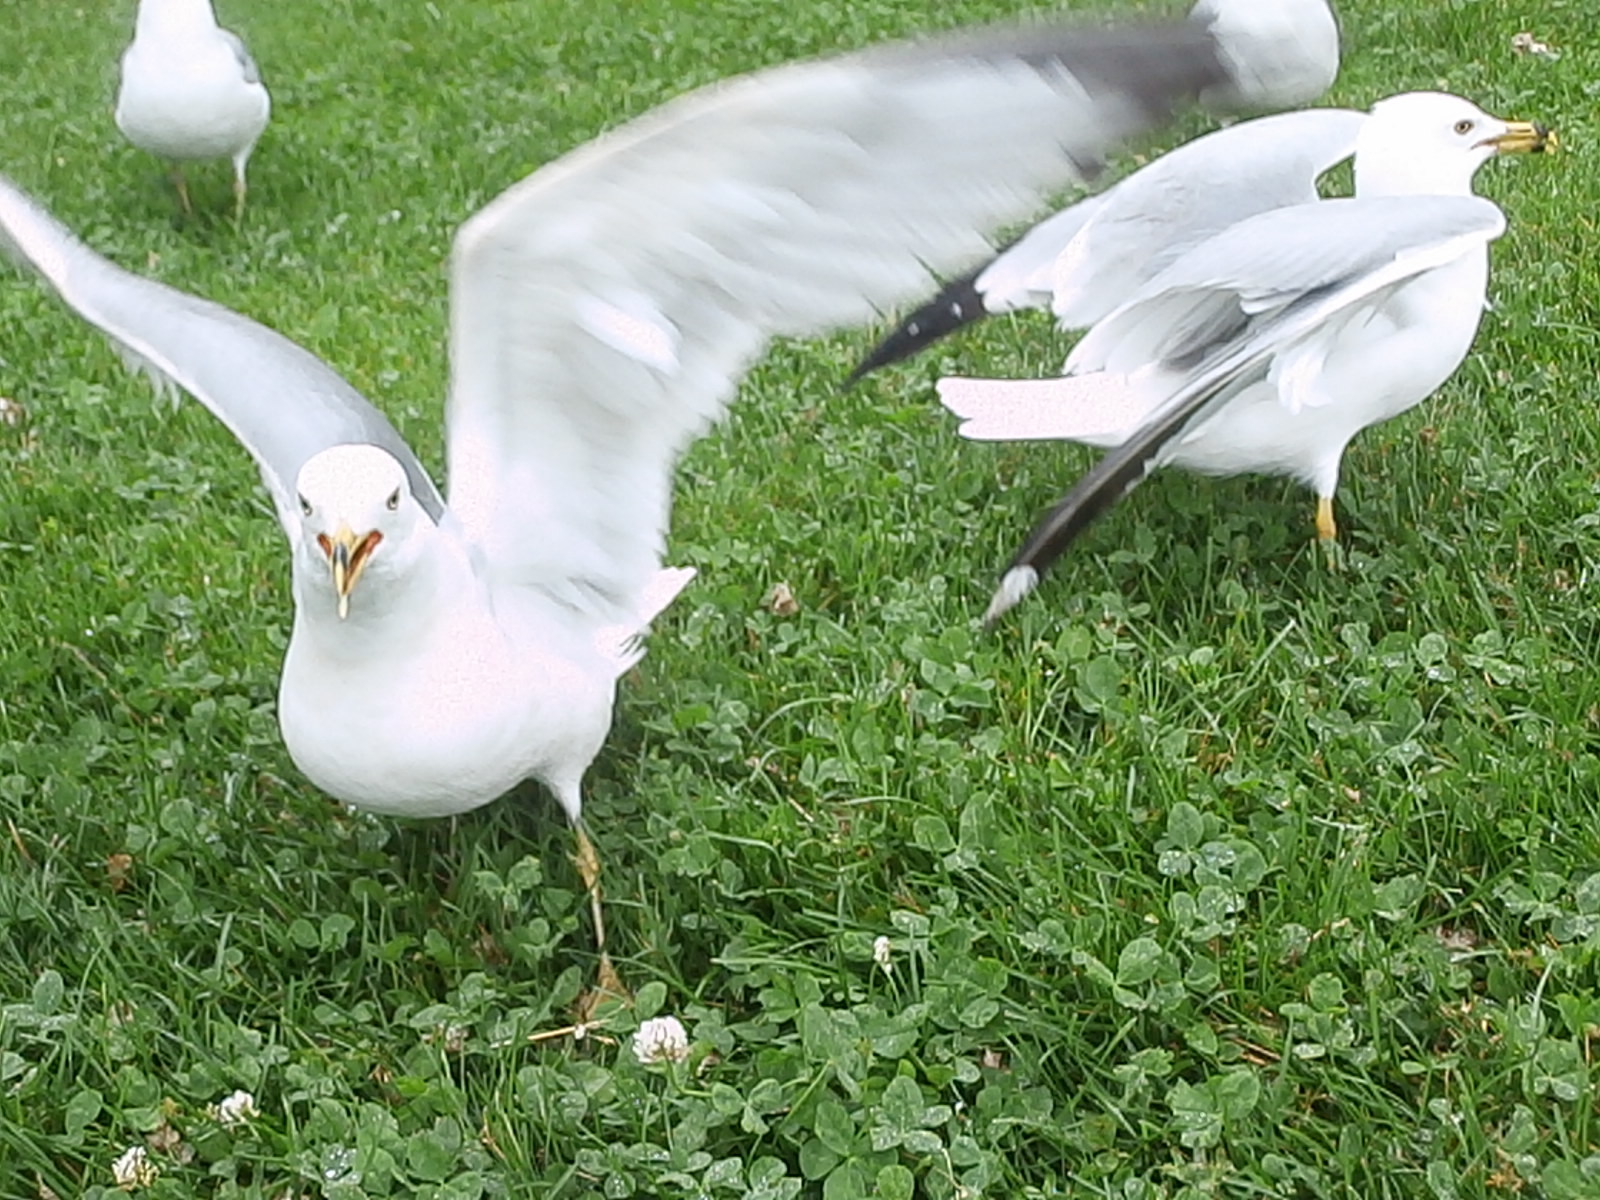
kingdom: Animalia
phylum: Chordata
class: Aves
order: Charadriiformes
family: Laridae
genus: Larus
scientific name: Larus delawarensis
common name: Ring-billed gull
